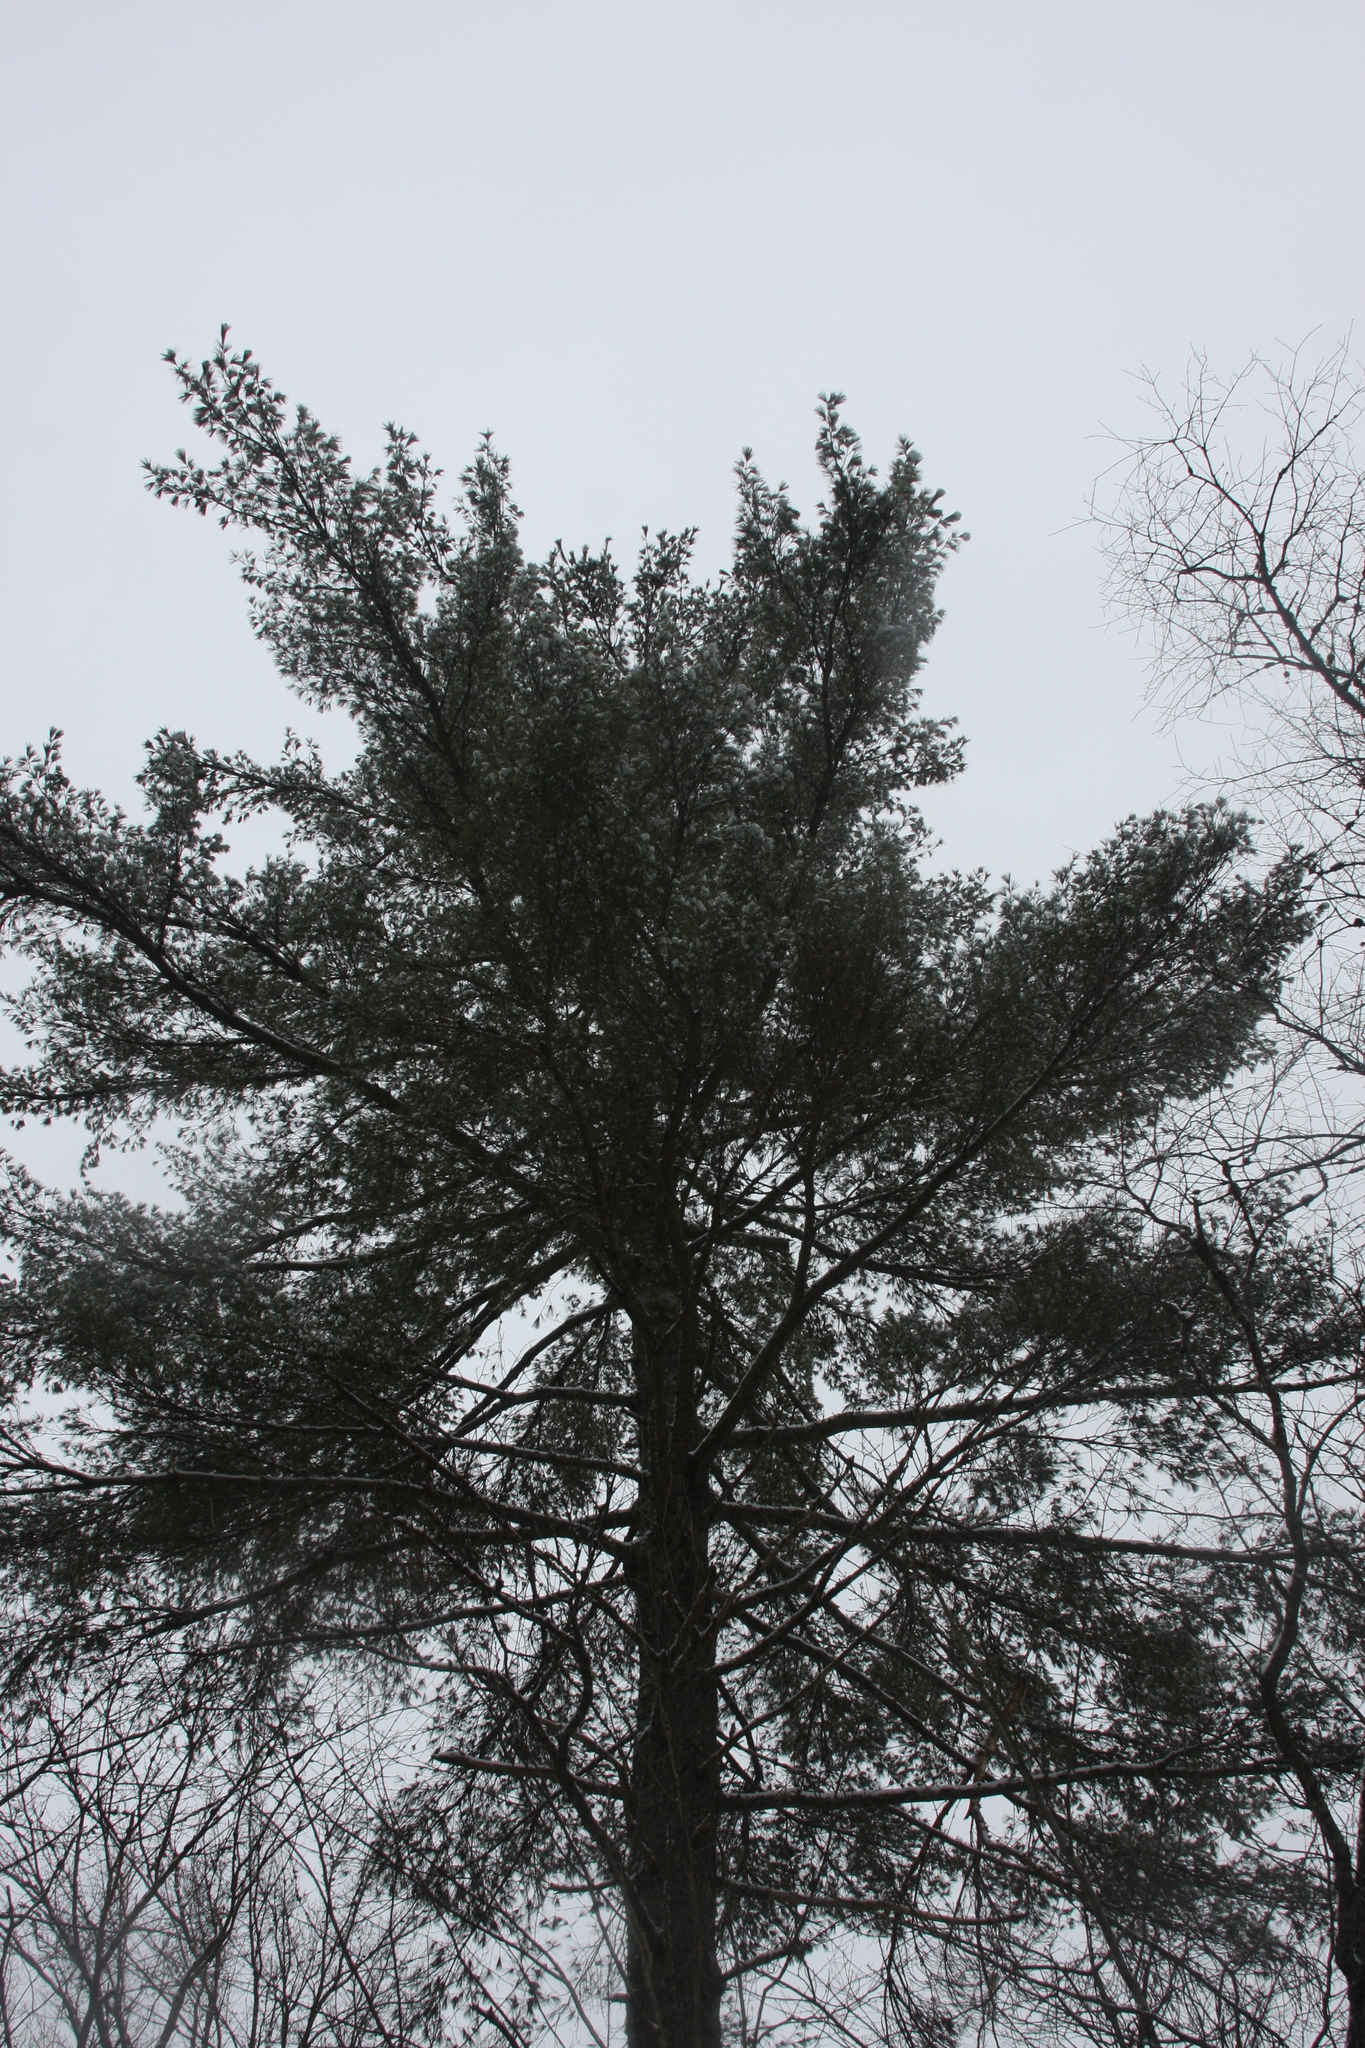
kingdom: Plantae
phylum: Tracheophyta
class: Pinopsida
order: Pinales
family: Pinaceae
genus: Pinus
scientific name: Pinus strobus
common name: Weymouth pine
